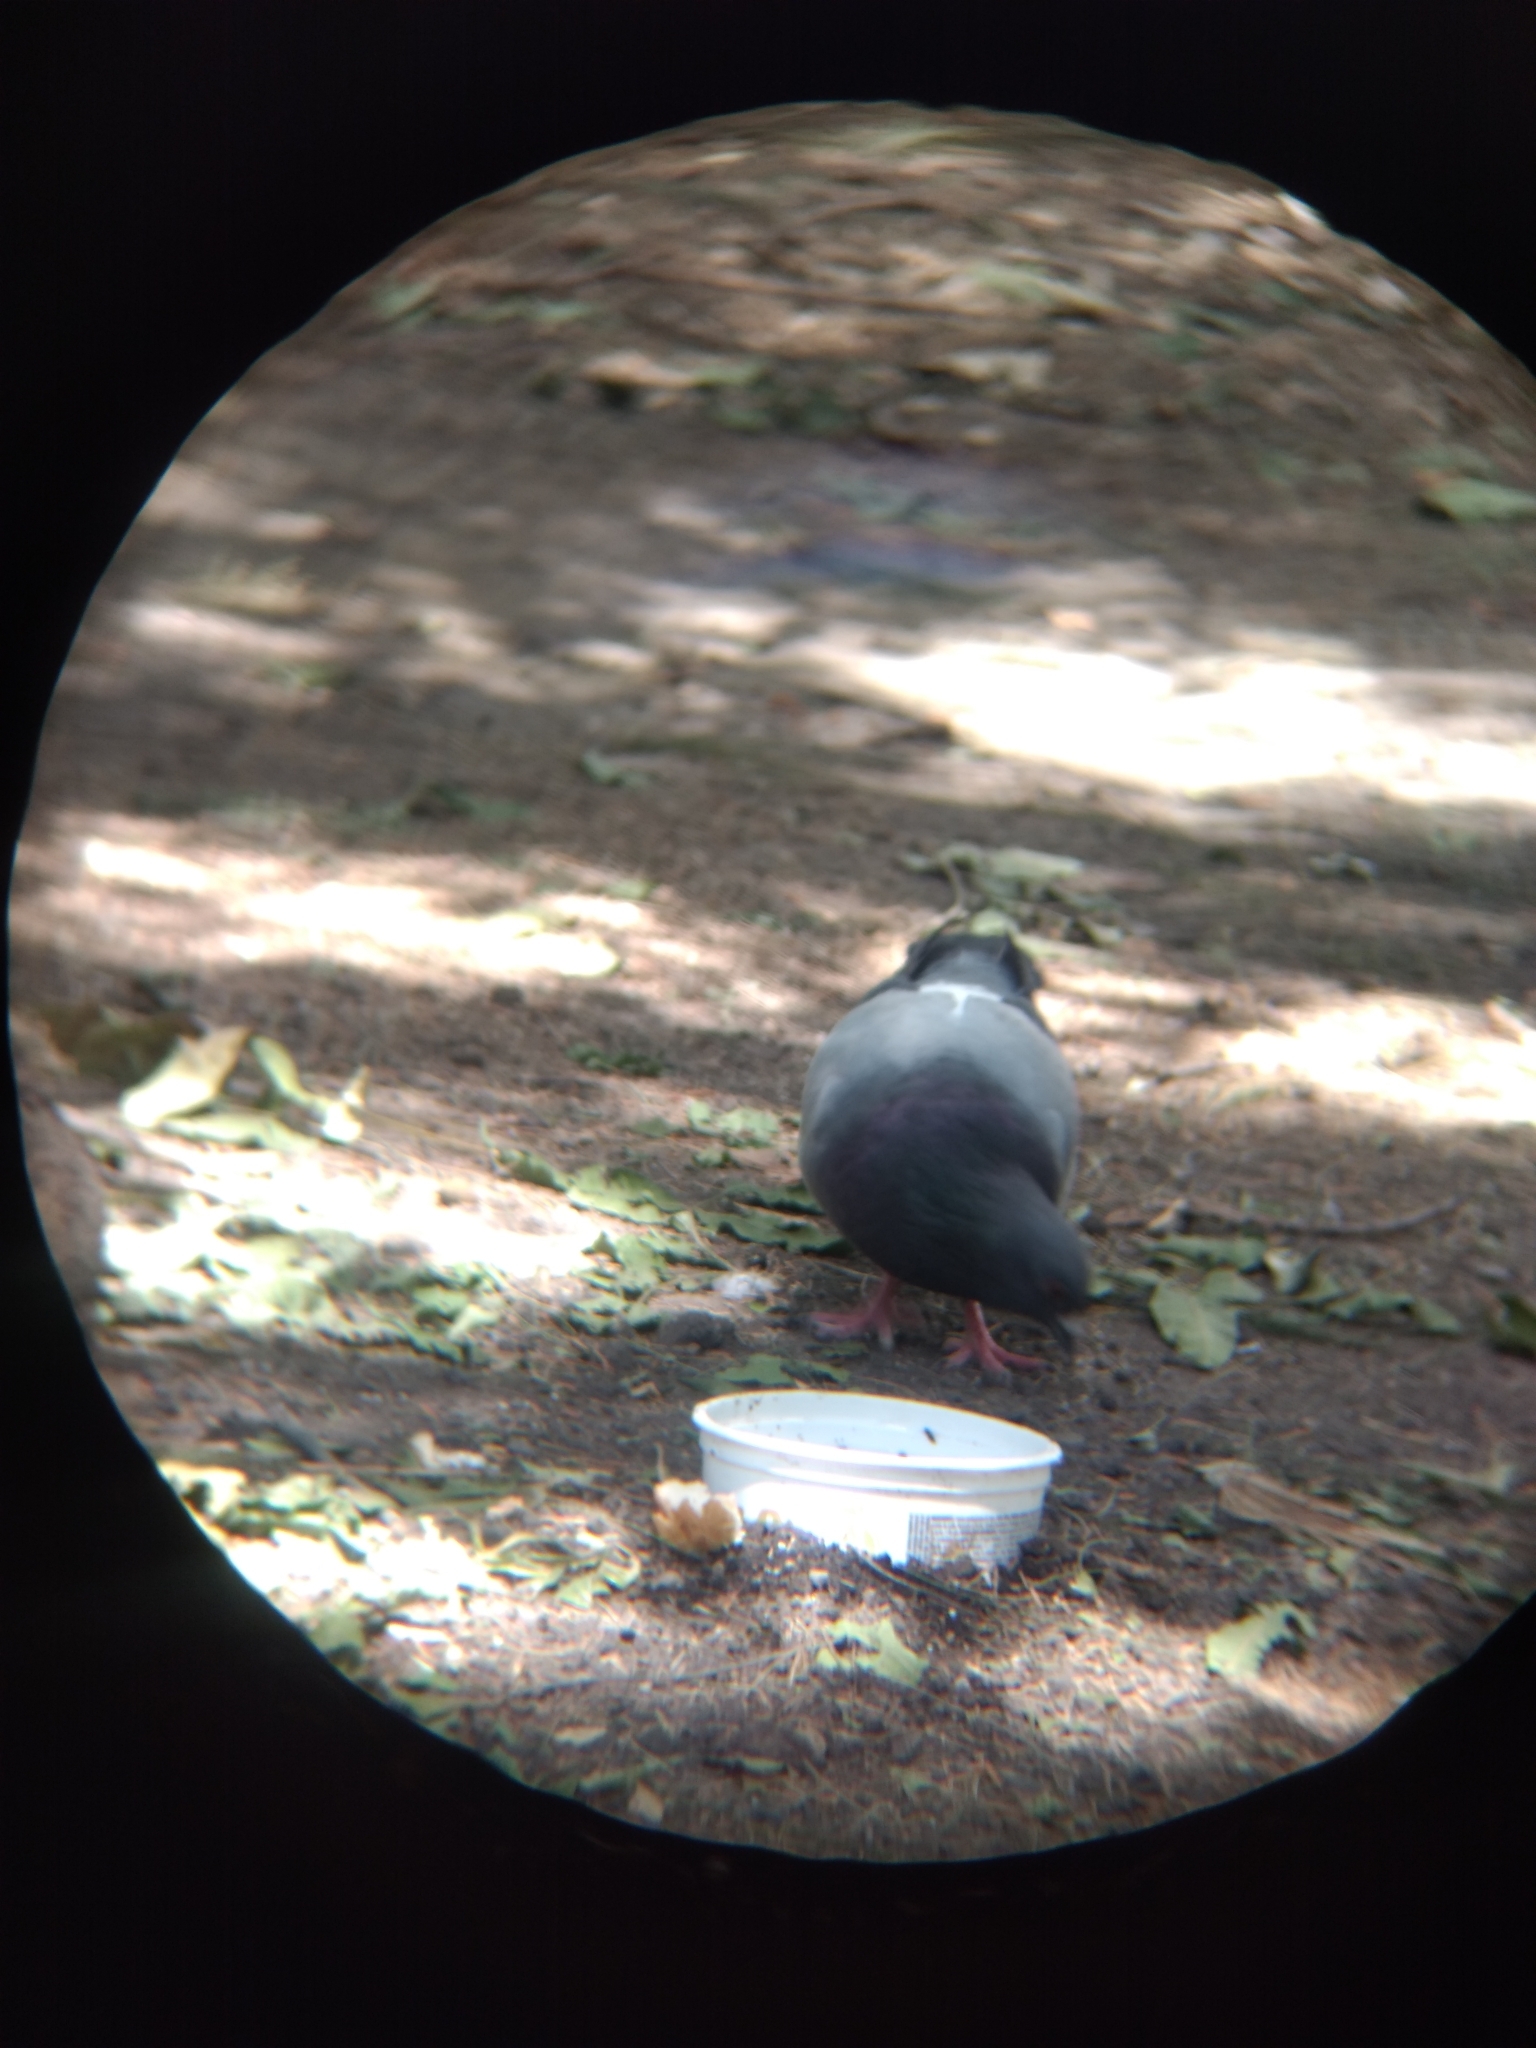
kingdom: Animalia
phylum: Chordata
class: Aves
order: Columbiformes
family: Columbidae
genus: Columba
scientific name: Columba livia
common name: Rock pigeon
